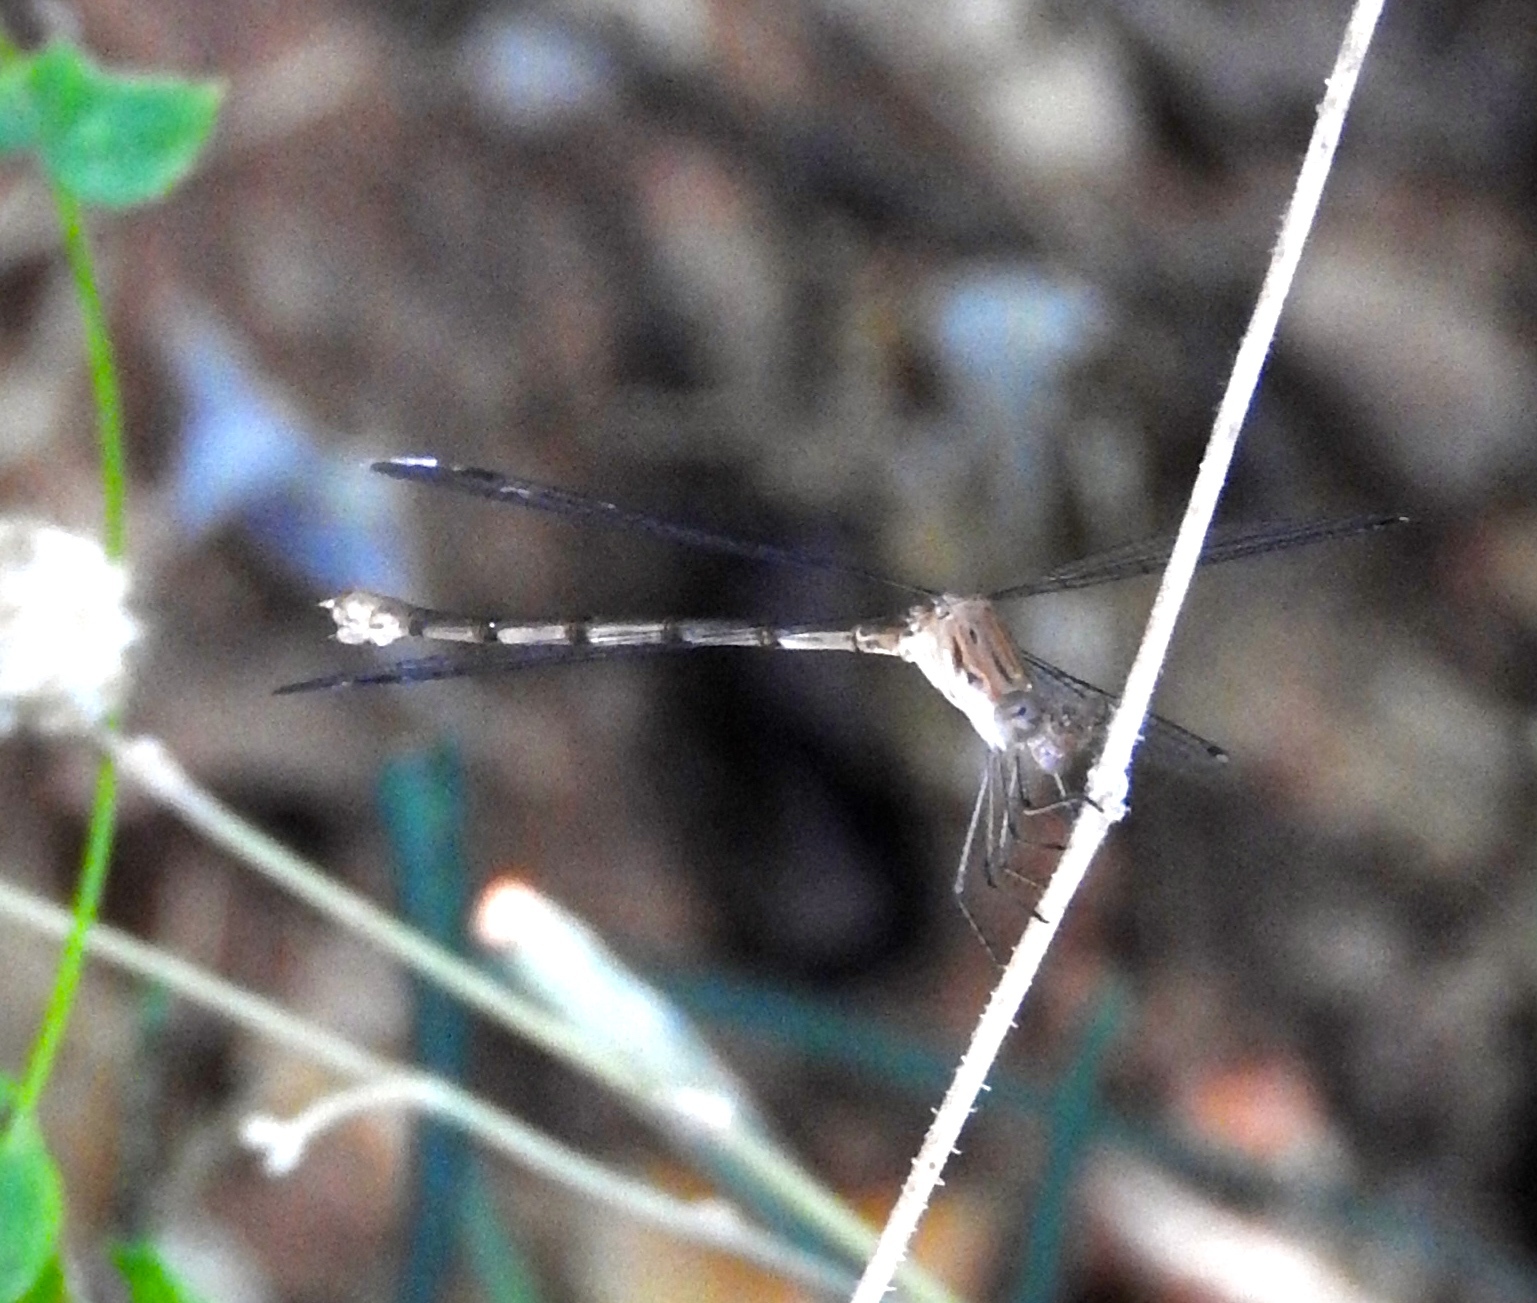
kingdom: Animalia
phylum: Arthropoda
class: Insecta
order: Odonata
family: Lestidae
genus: Lestes
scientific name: Lestes sigma
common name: Chalky spreadwing
